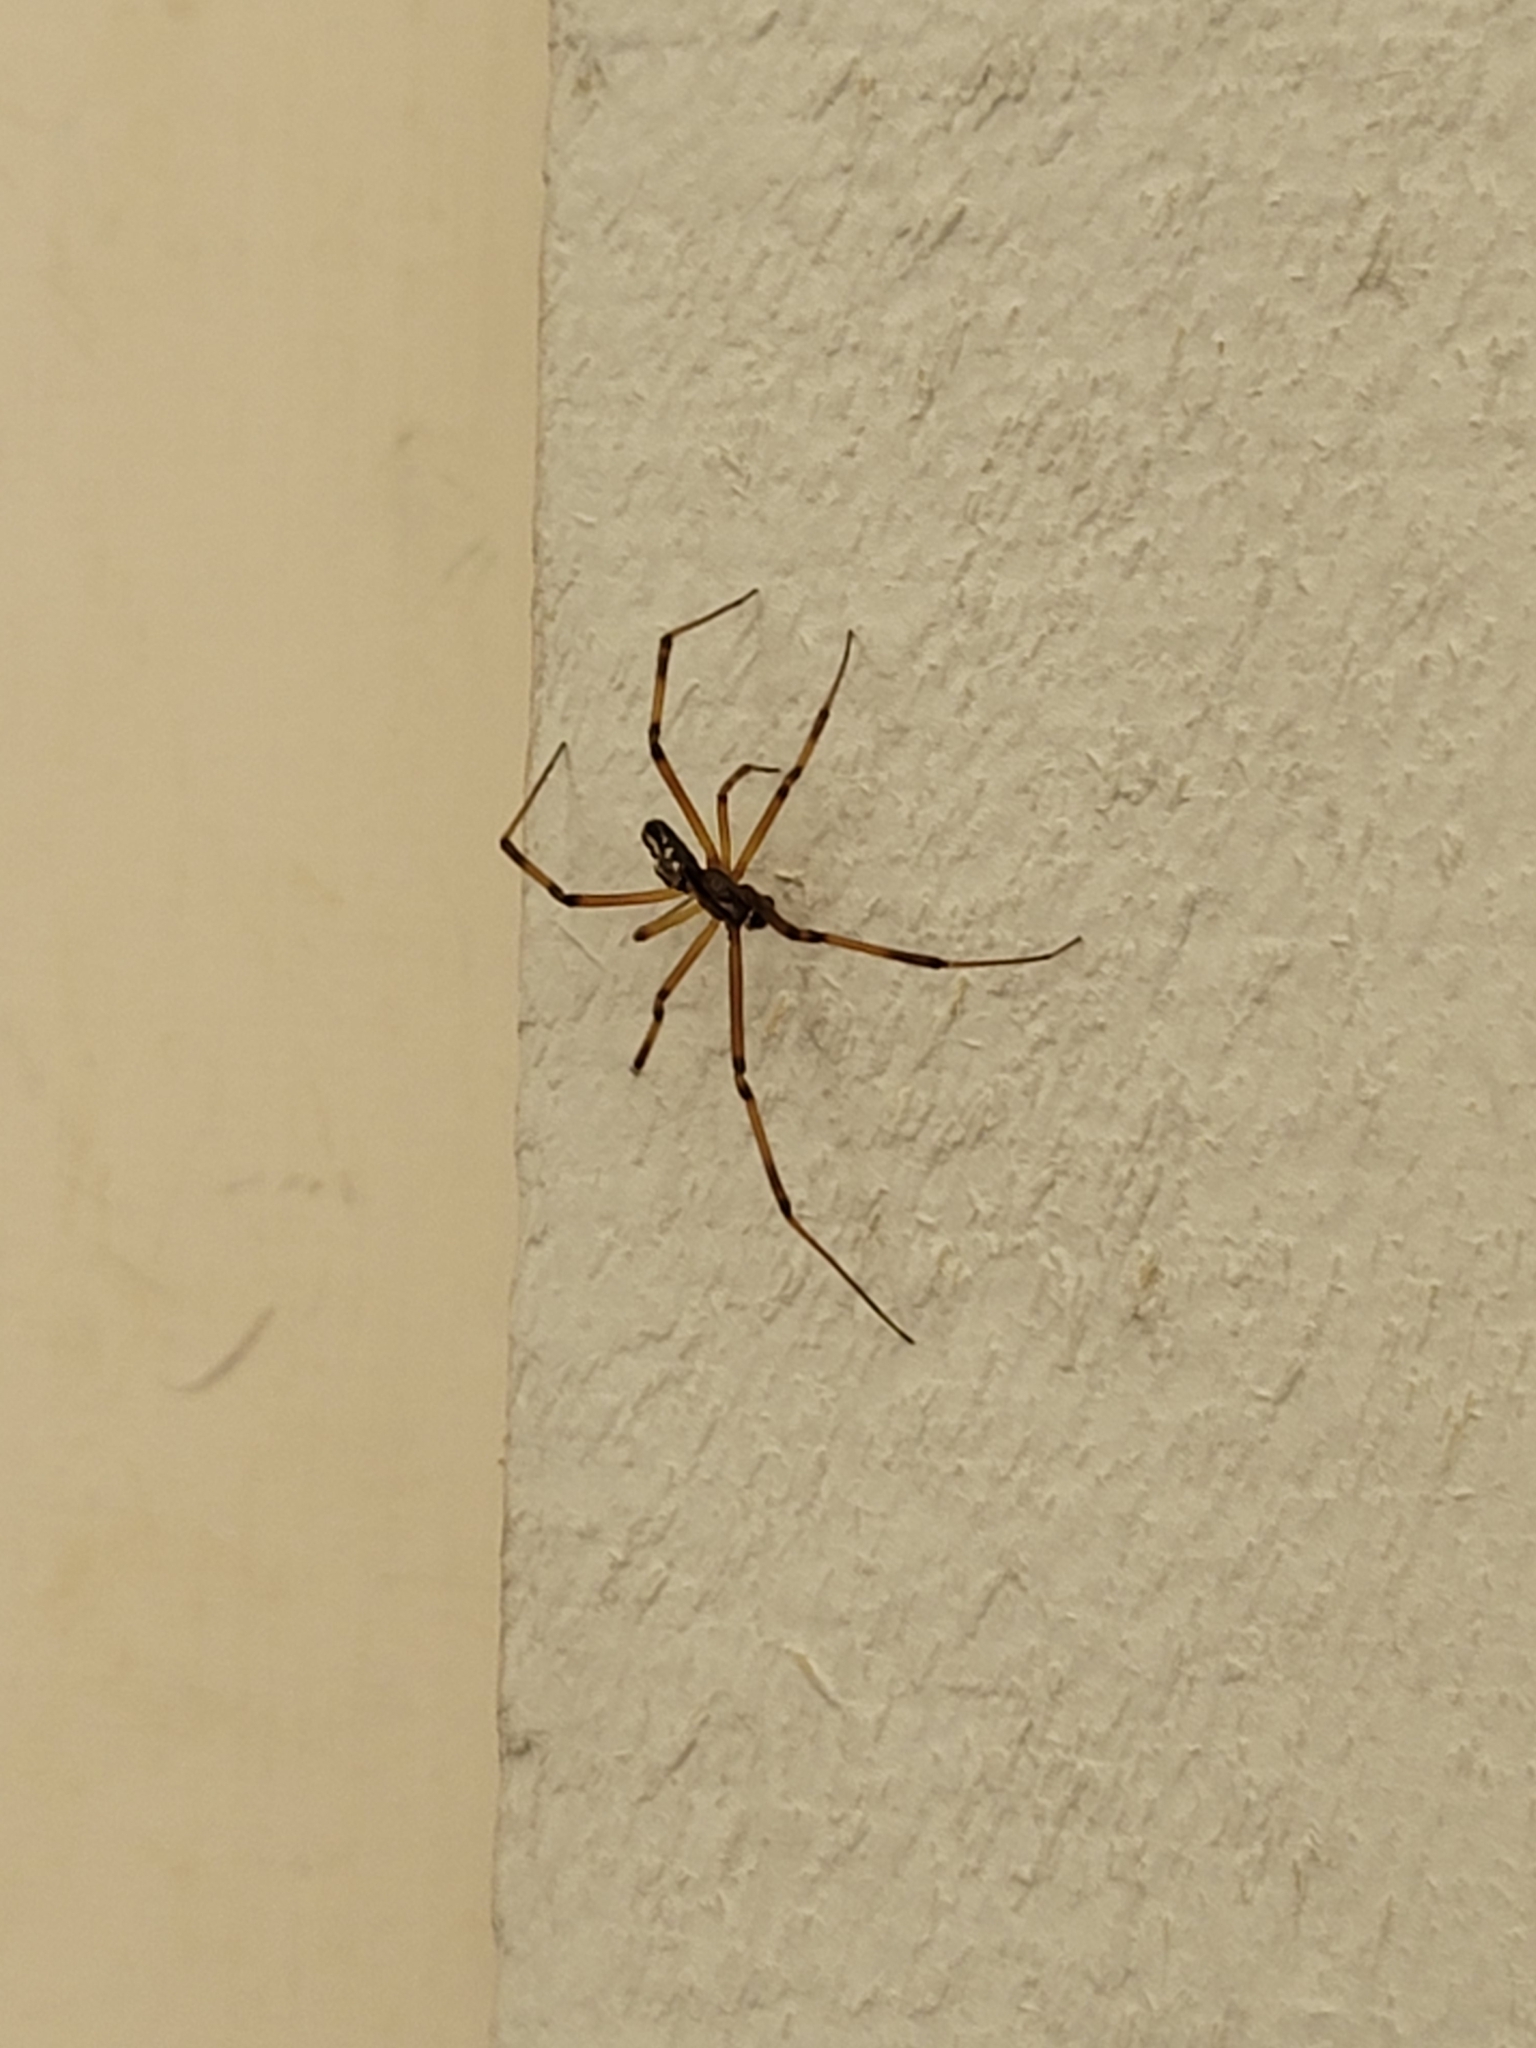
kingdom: Animalia
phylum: Arthropoda
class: Arachnida
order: Araneae
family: Theridiidae
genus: Latrodectus
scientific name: Latrodectus hesperus
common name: Western black widow
